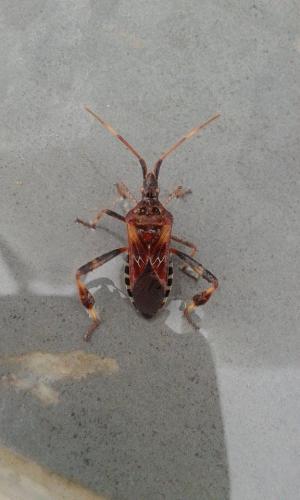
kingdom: Animalia
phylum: Arthropoda
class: Insecta
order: Hemiptera
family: Coreidae
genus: Leptoglossus
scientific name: Leptoglossus occidentalis
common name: Western conifer-seed bug
